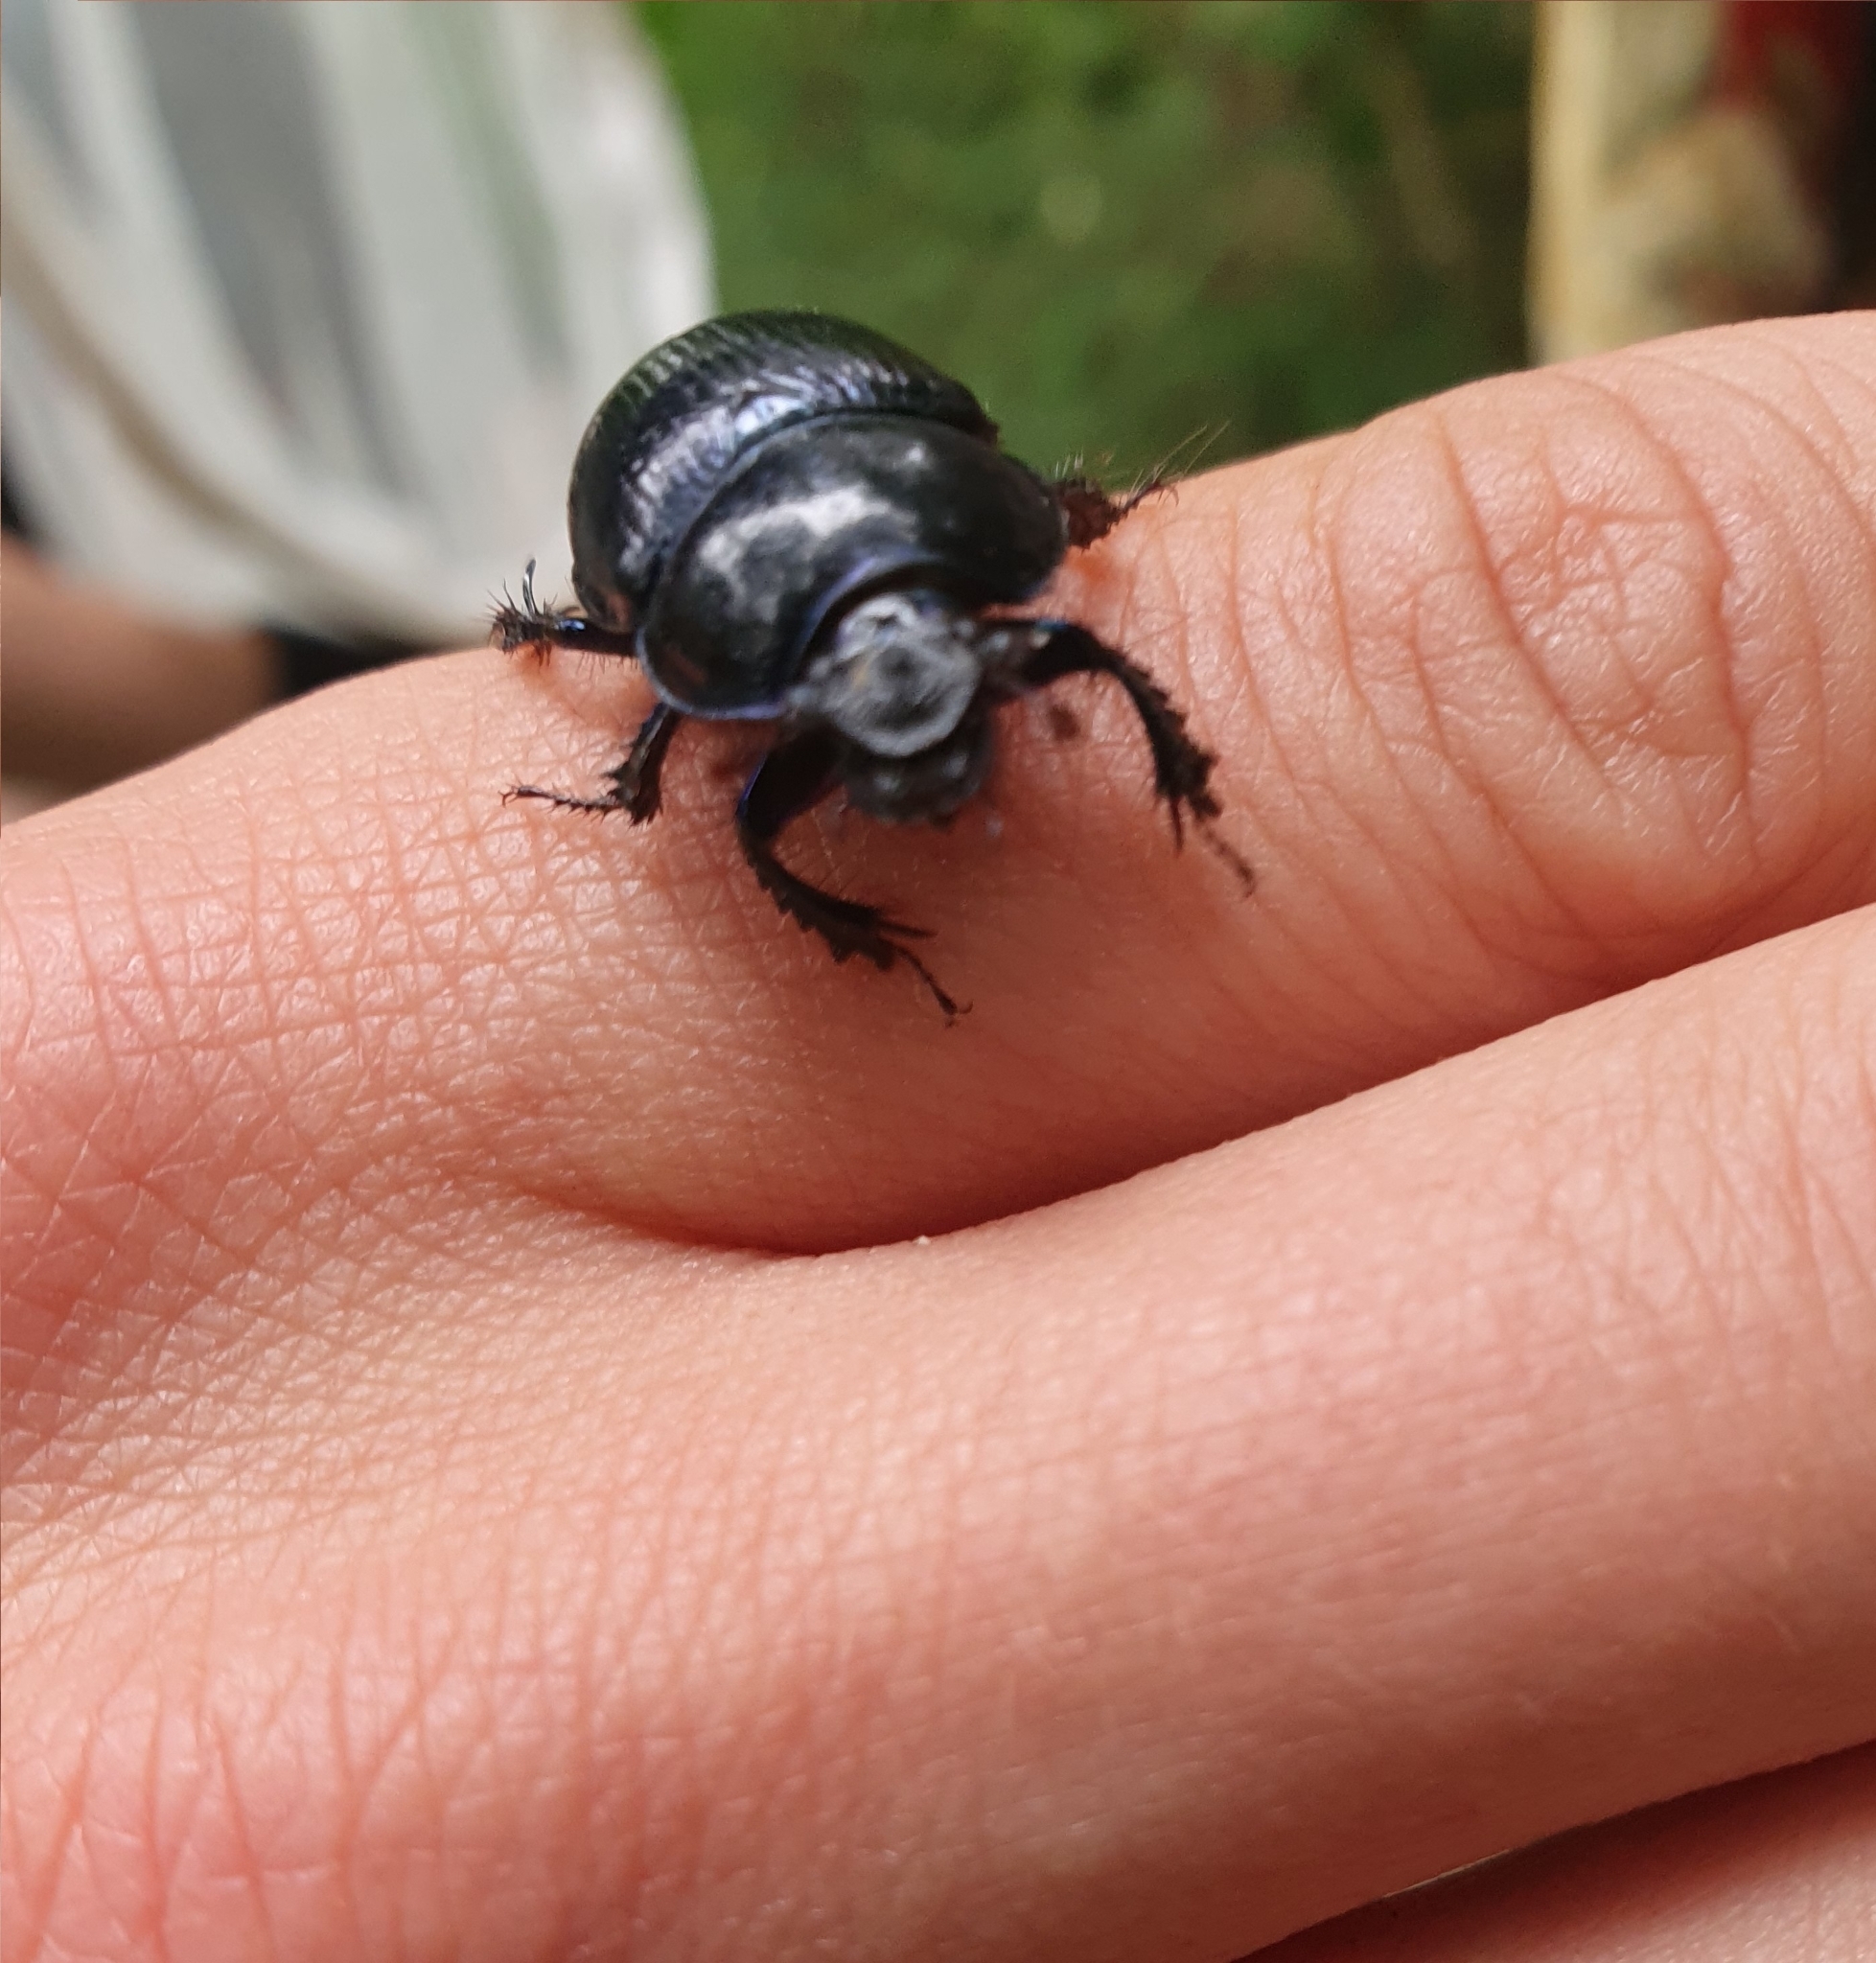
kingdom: Animalia
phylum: Arthropoda
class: Insecta
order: Coleoptera
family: Geotrupidae
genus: Anoplotrupes
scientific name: Anoplotrupes stercorosus
